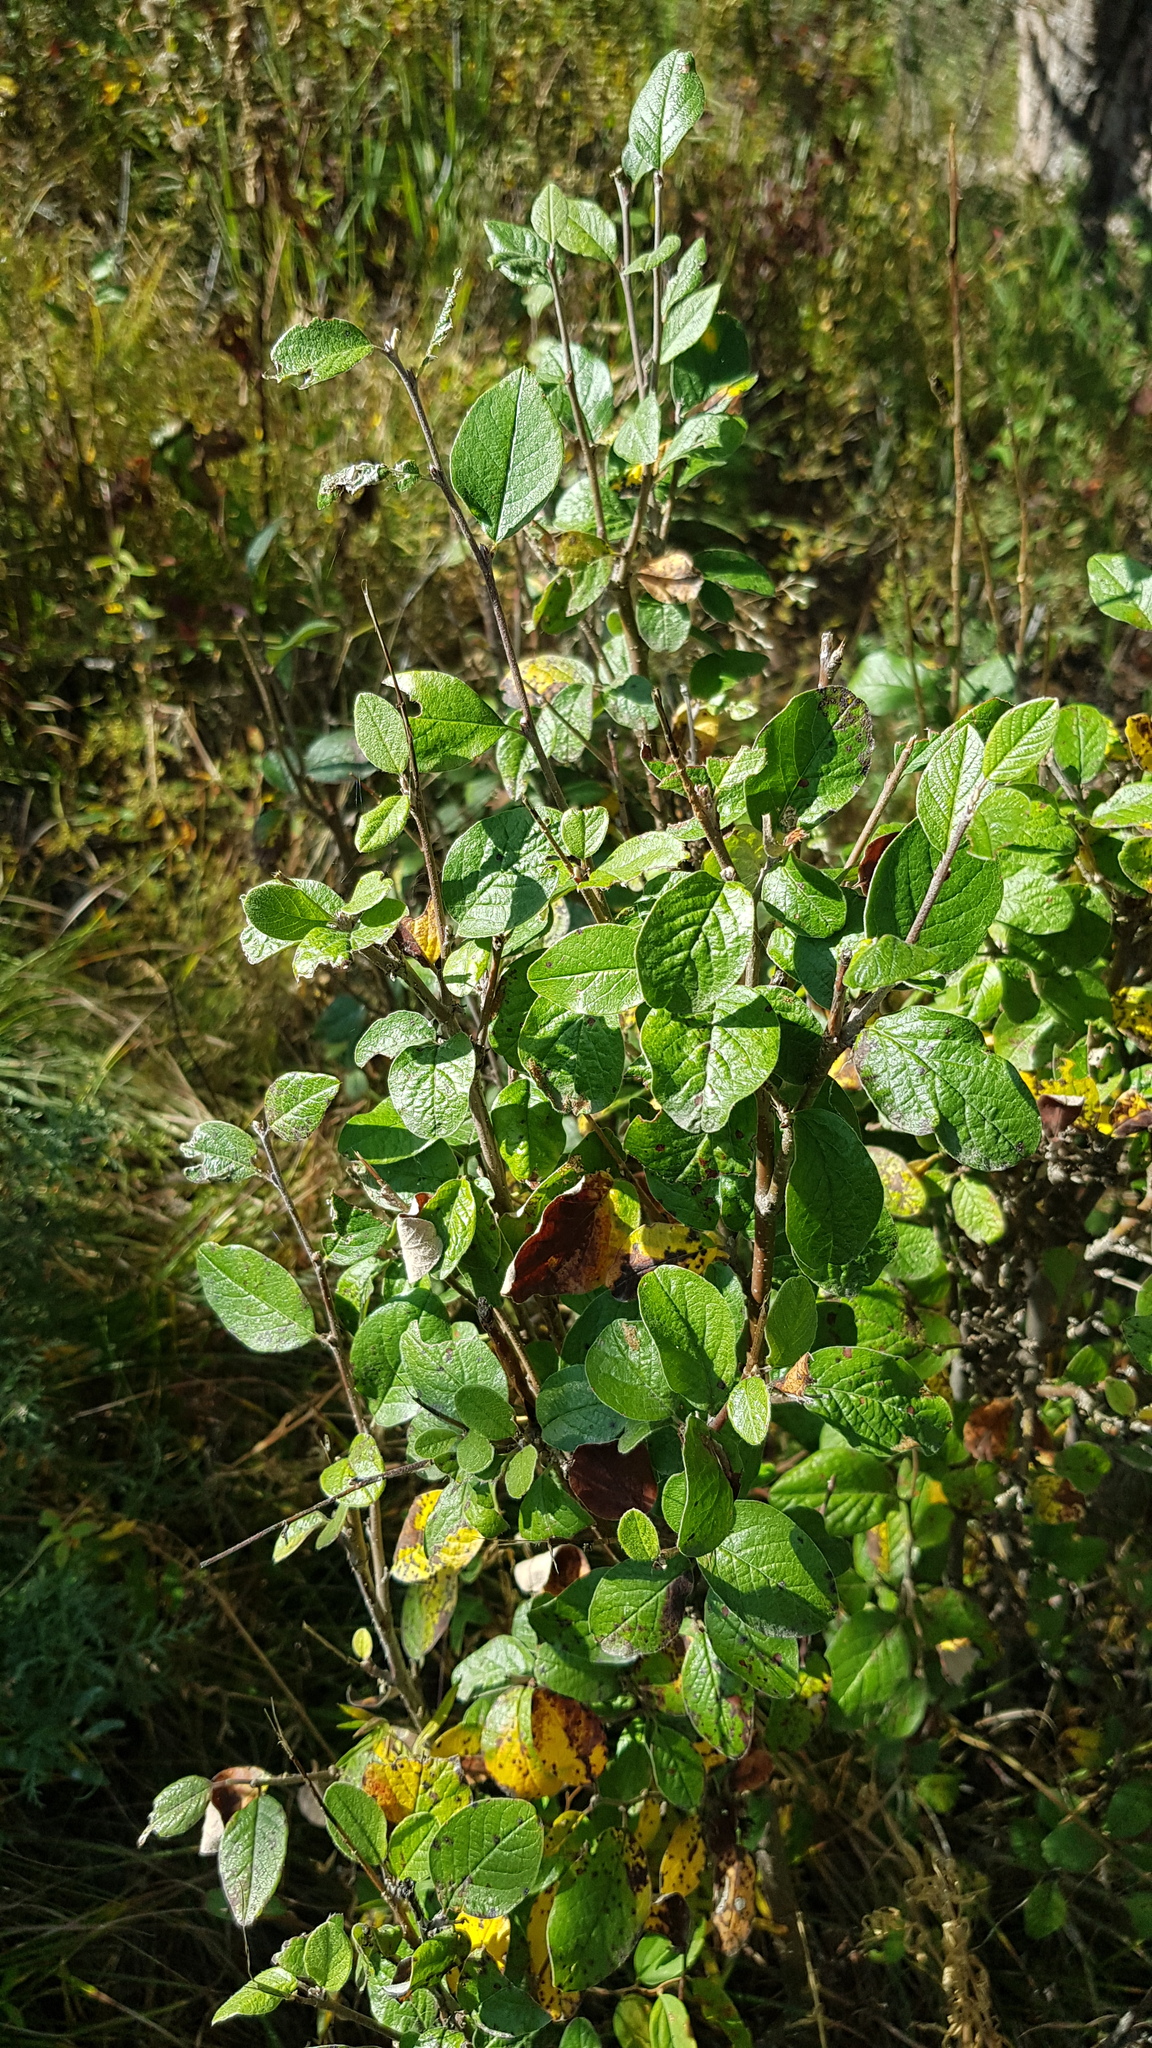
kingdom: Plantae
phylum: Tracheophyta
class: Magnoliopsida
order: Rosales
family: Rosaceae
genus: Cotoneaster
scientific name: Cotoneaster melanocarpus
